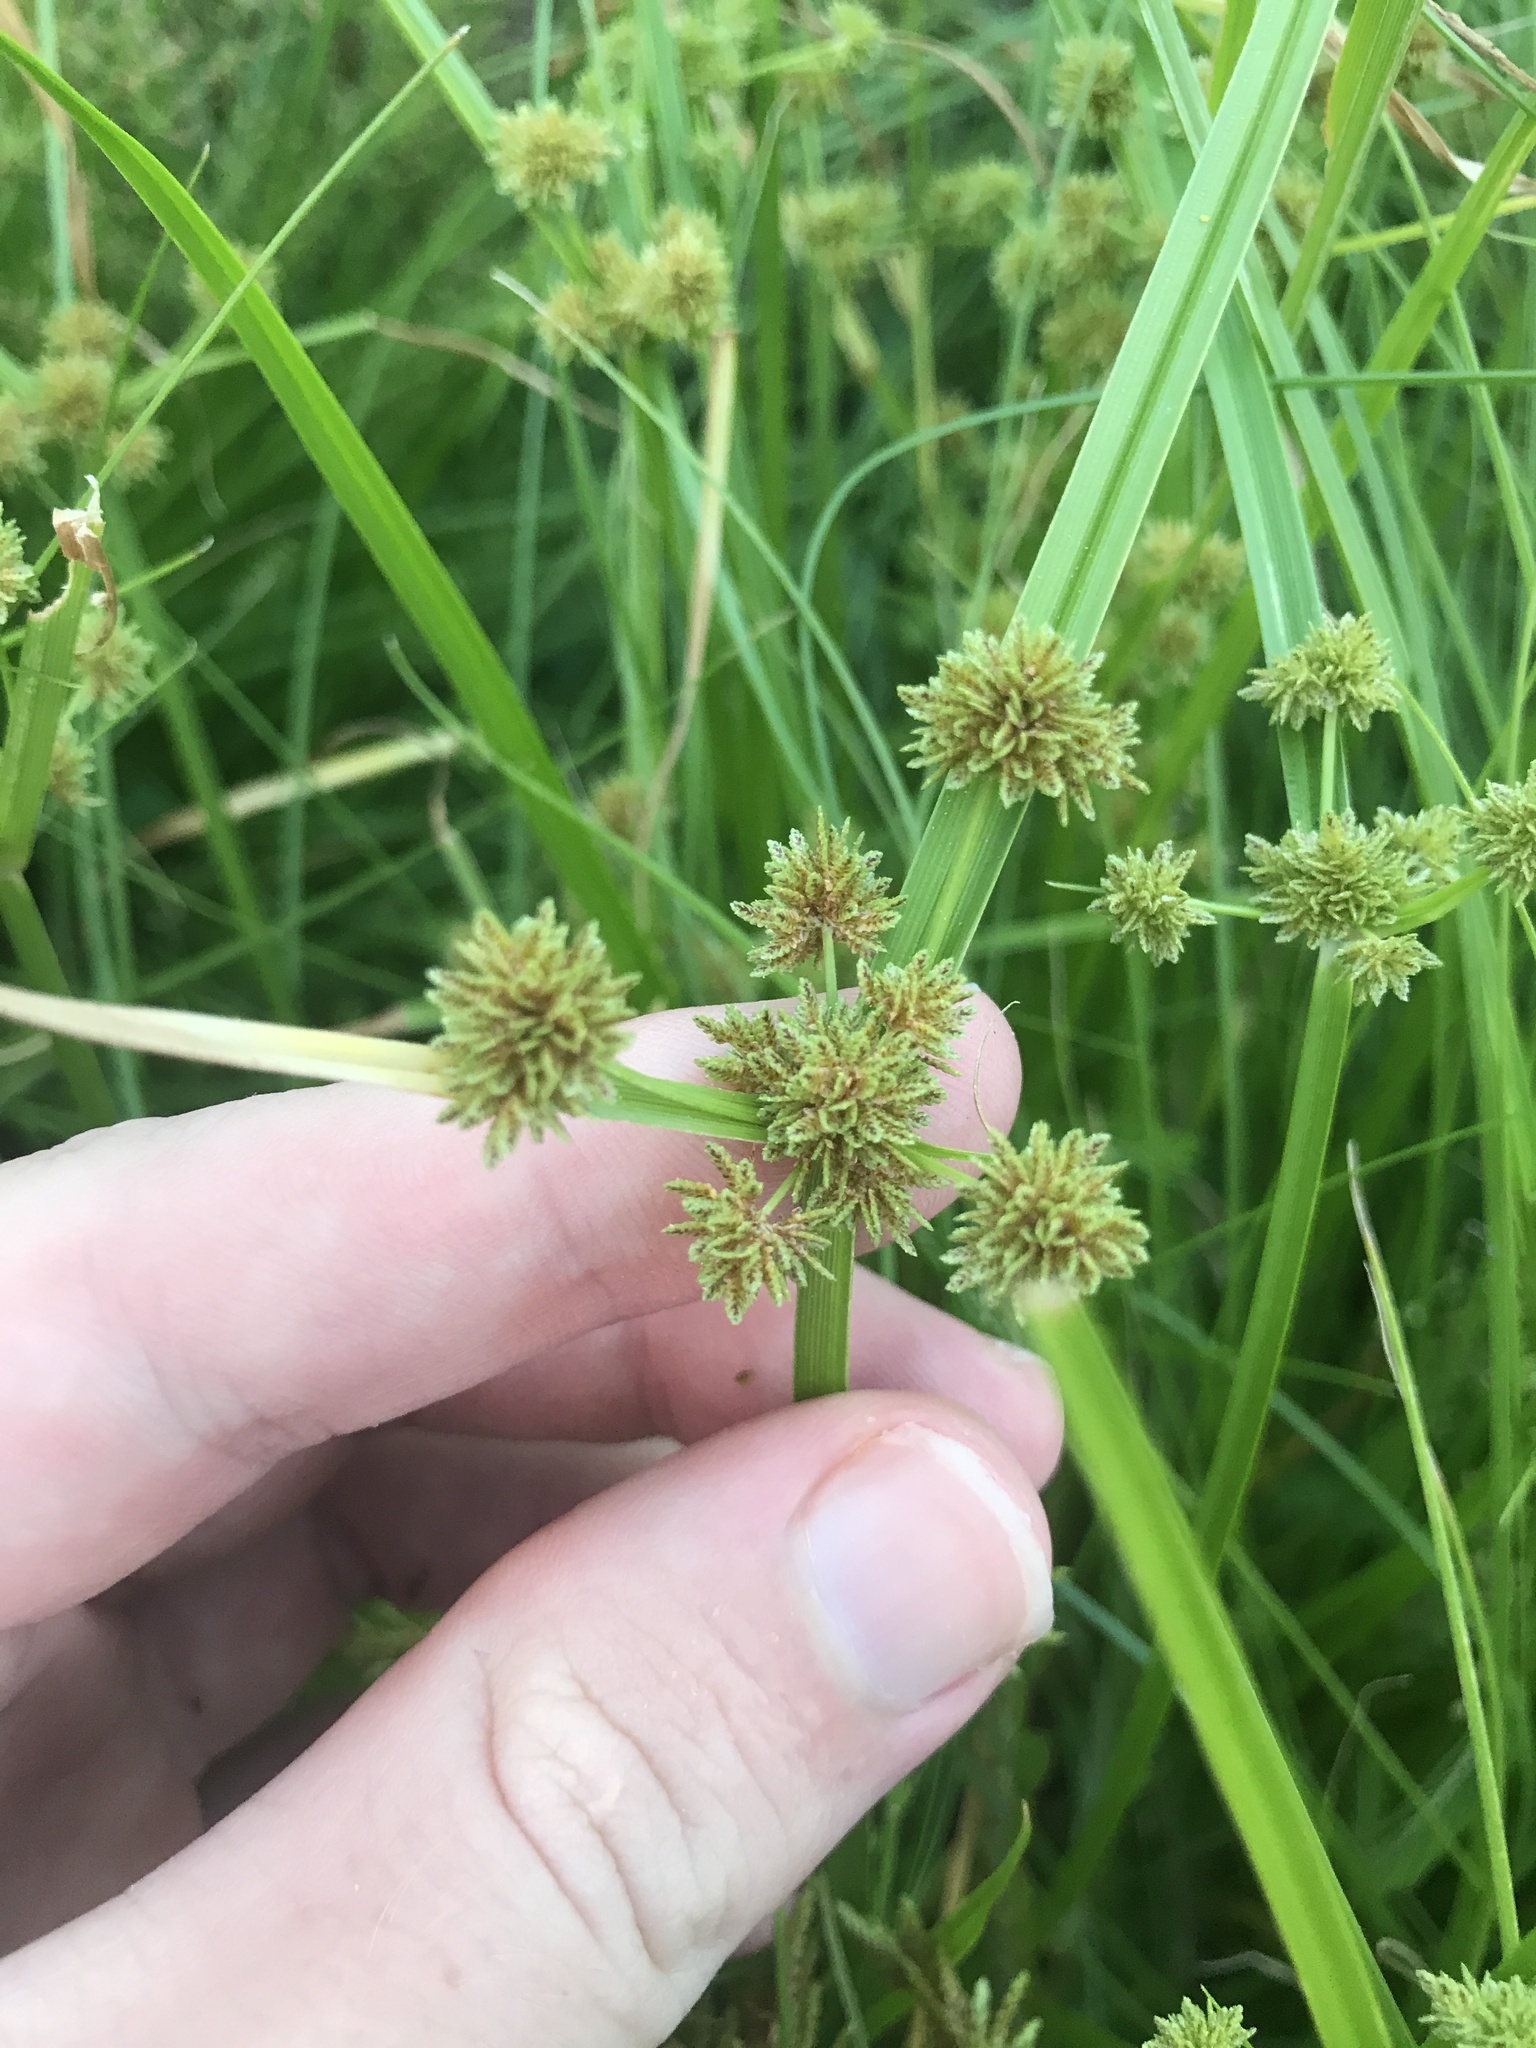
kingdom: Plantae
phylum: Tracheophyta
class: Liliopsida
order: Poales
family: Cyperaceae
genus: Cyperus
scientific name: Cyperus difformis
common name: Variable flatsedge
